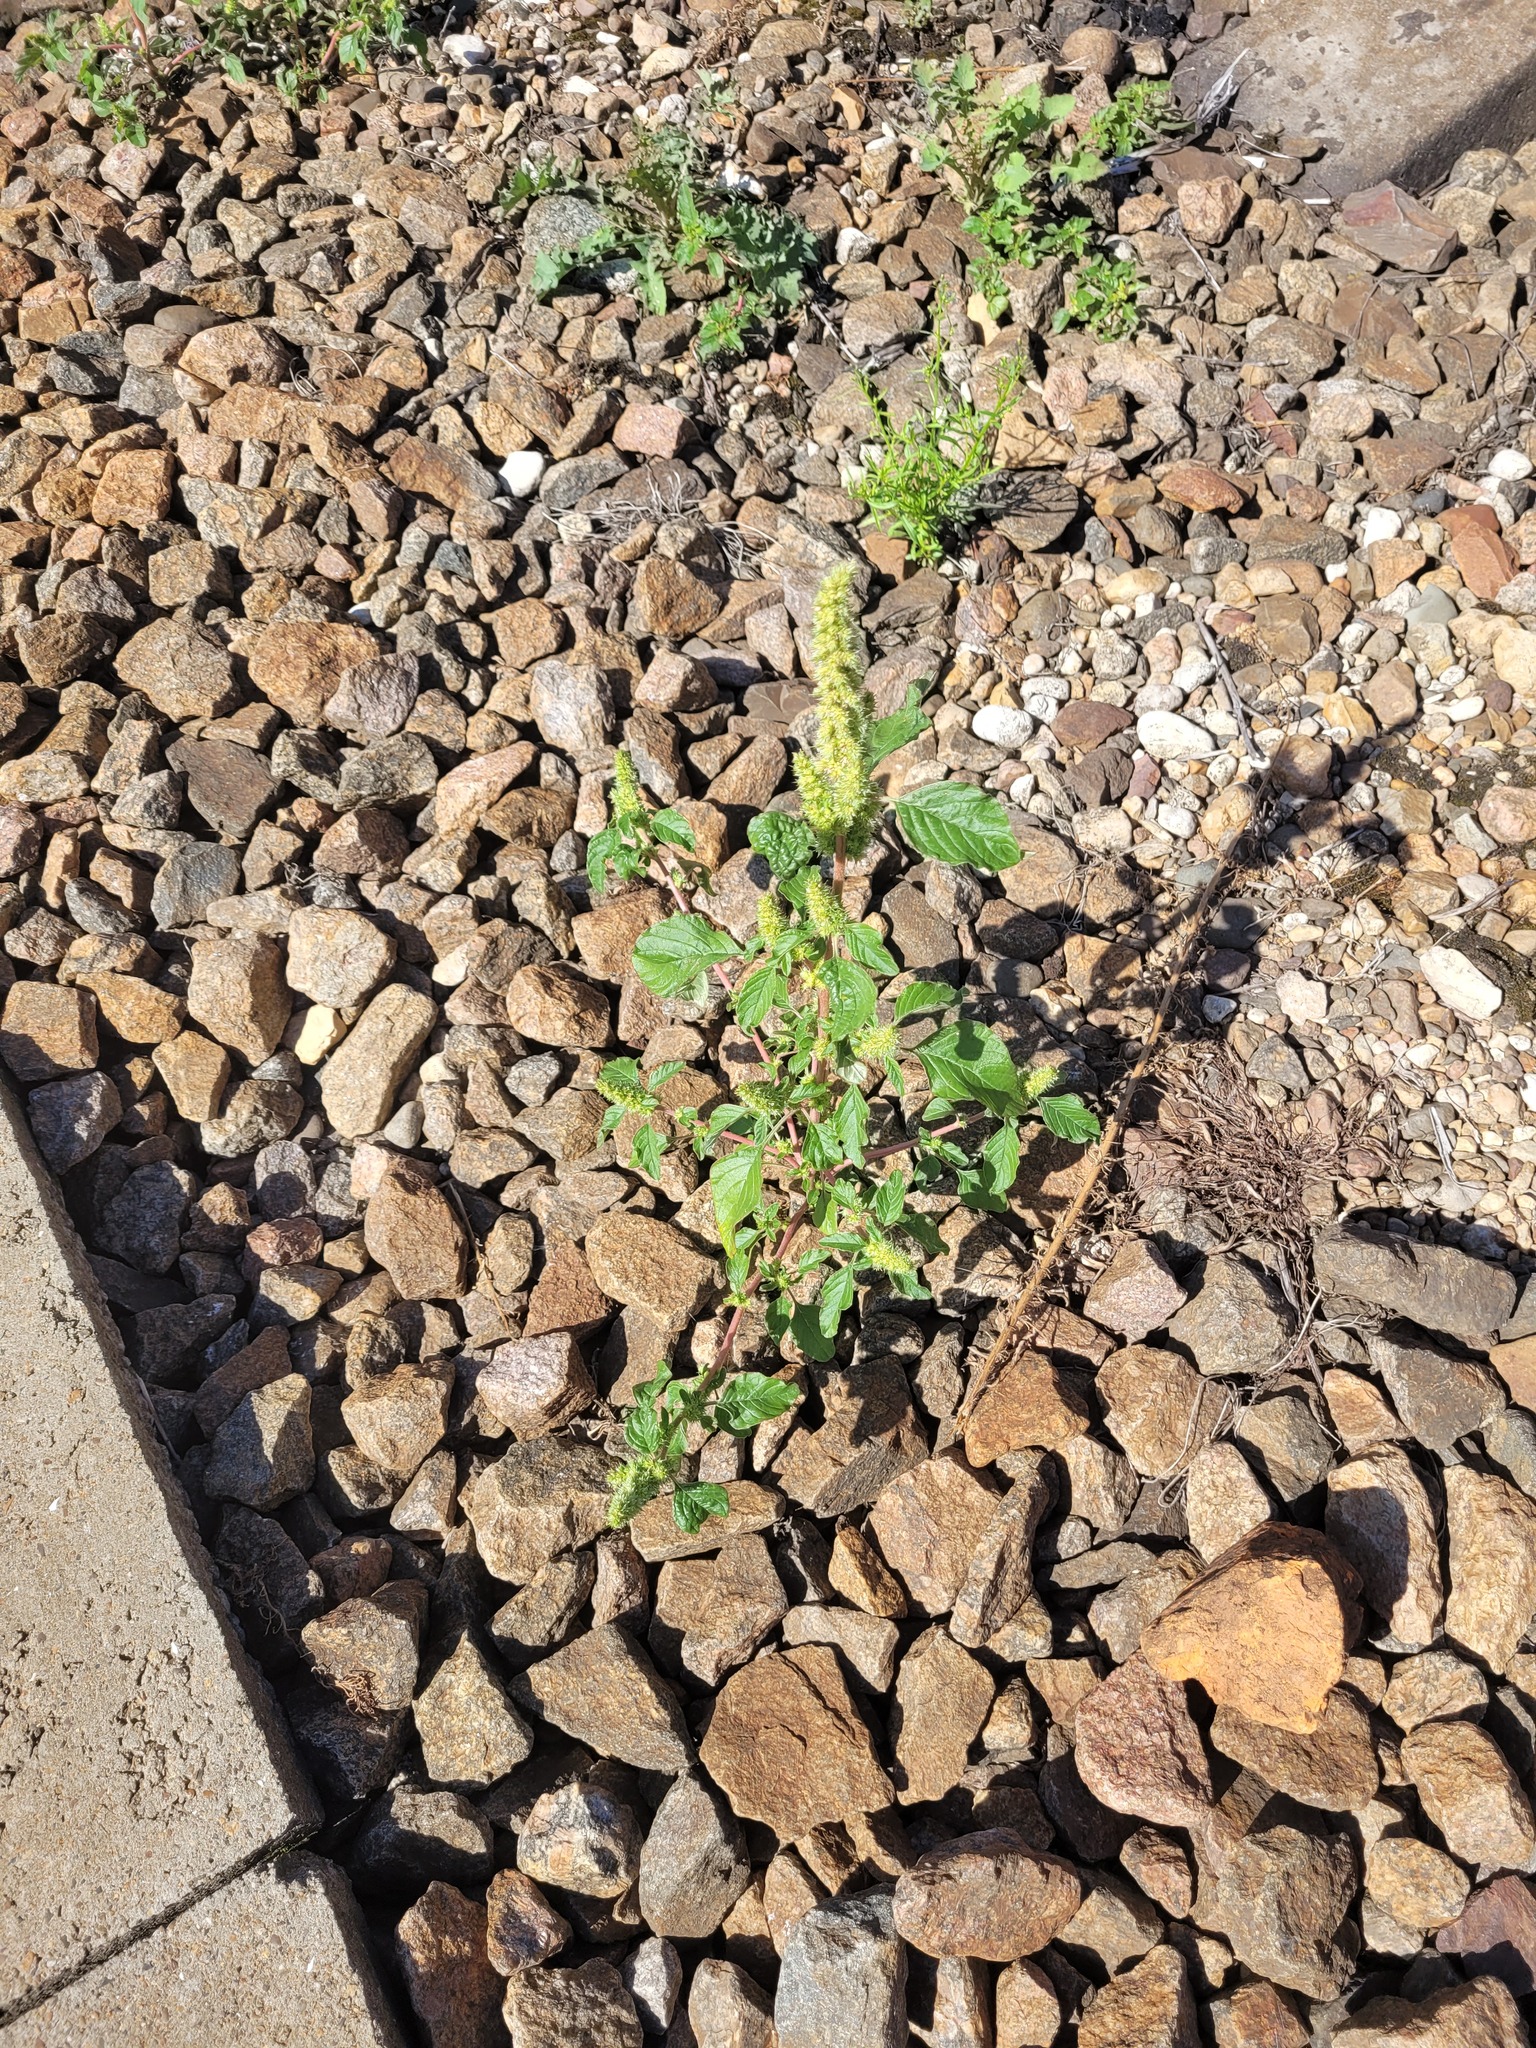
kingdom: Plantae
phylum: Tracheophyta
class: Magnoliopsida
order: Caryophyllales
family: Amaranthaceae
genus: Amaranthus
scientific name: Amaranthus retroflexus
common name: Redroot amaranth
